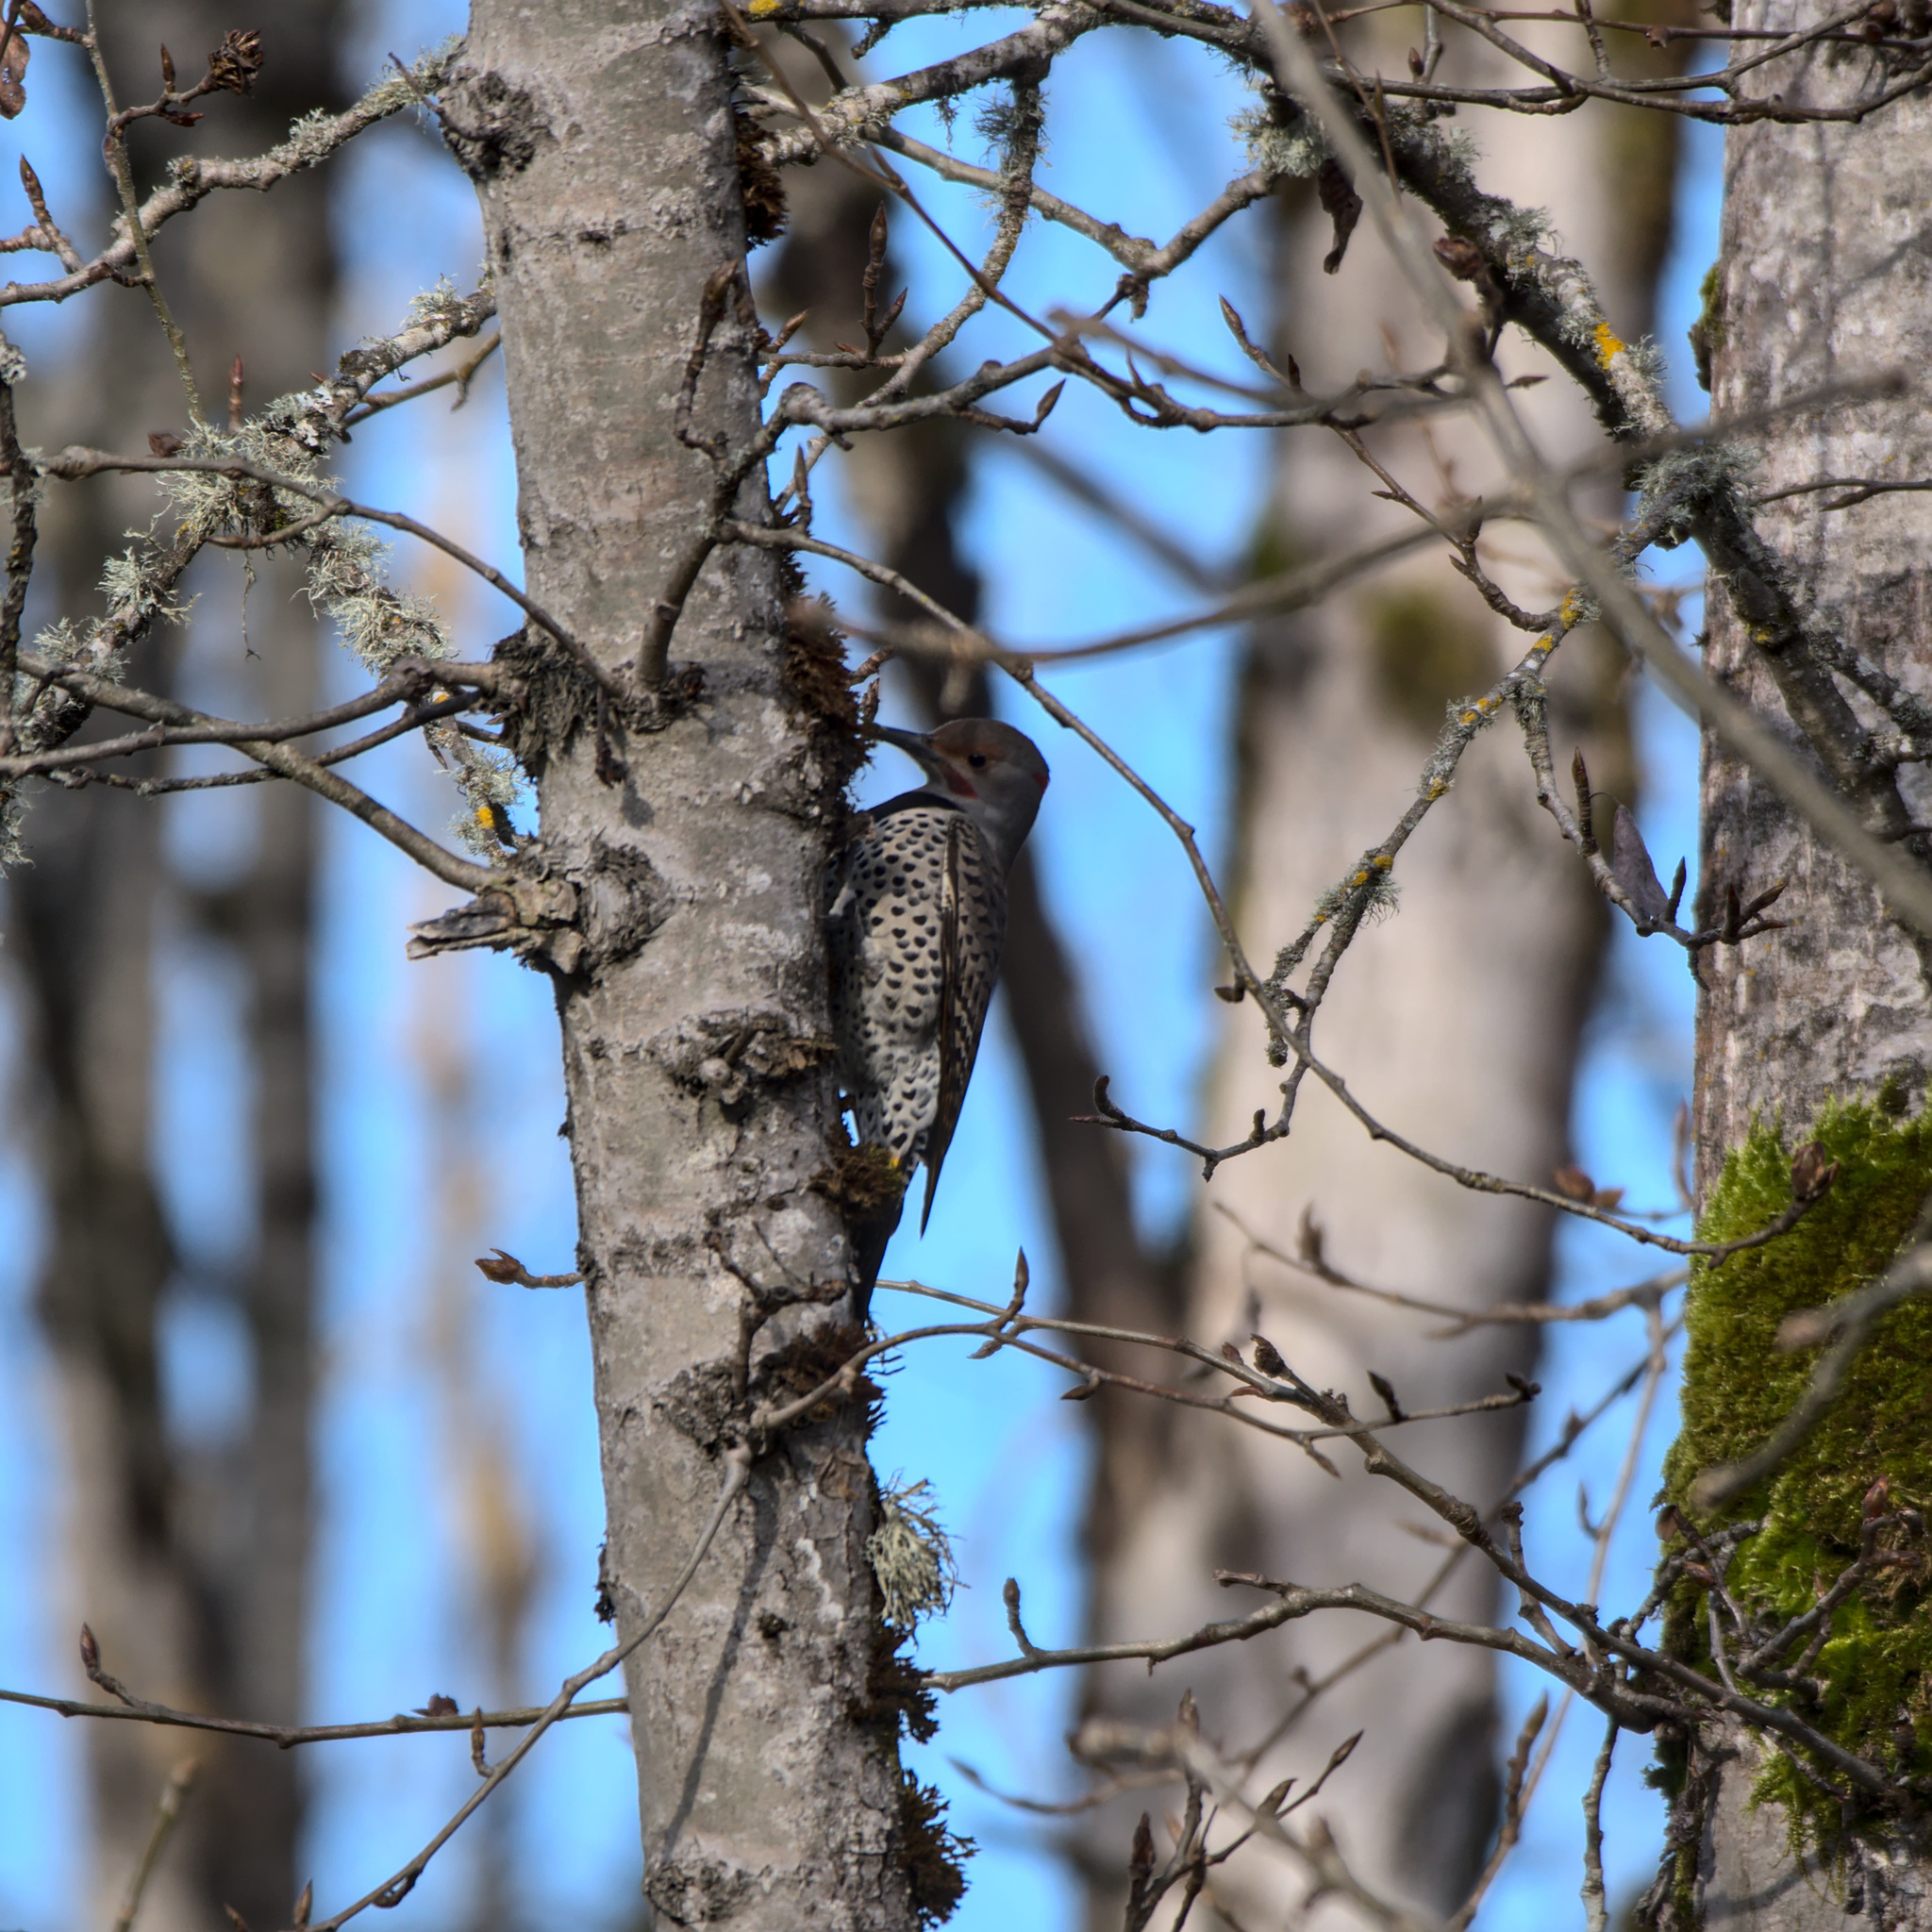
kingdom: Animalia
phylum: Chordata
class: Aves
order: Piciformes
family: Picidae
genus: Colaptes
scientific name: Colaptes auratus
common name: Northern flicker
